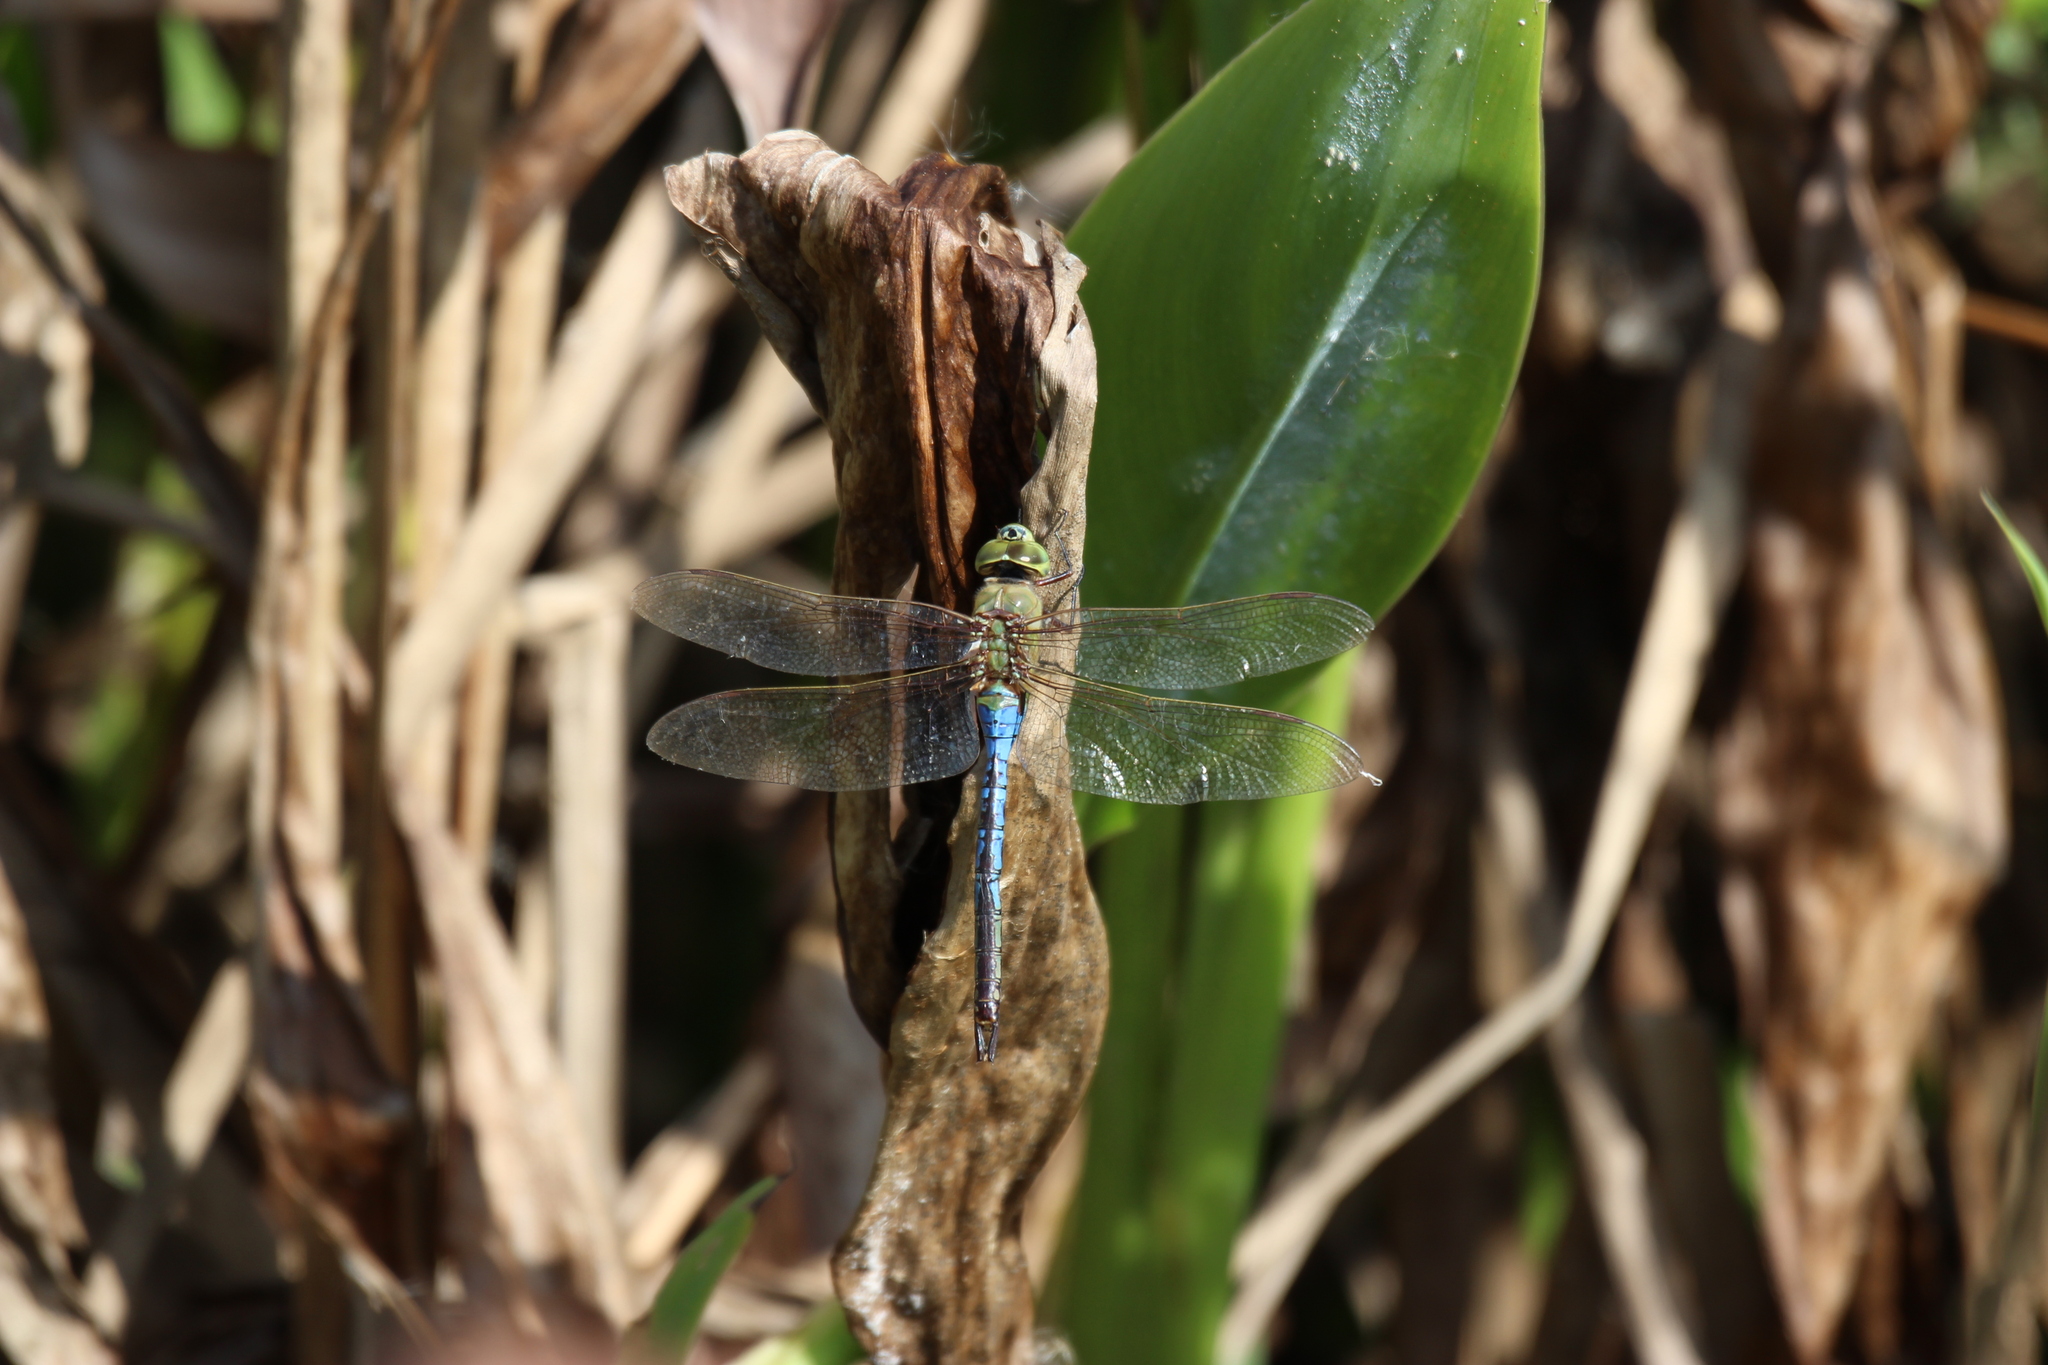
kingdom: Animalia
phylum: Arthropoda
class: Insecta
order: Odonata
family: Aeshnidae
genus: Anax
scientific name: Anax junius
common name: Common green darner
